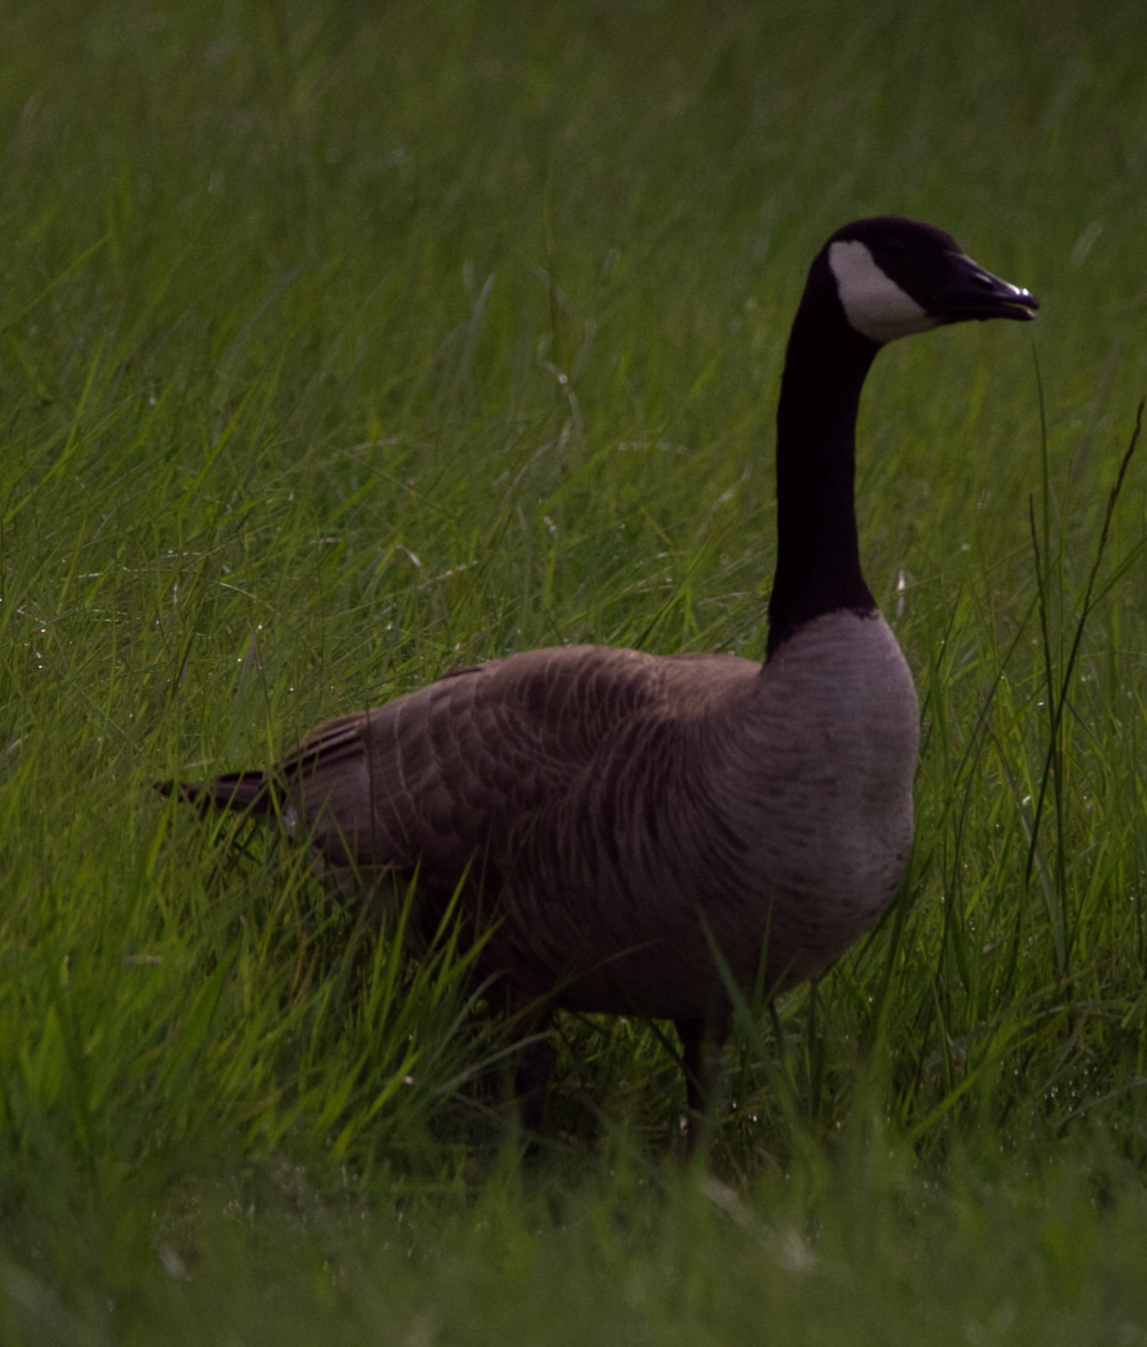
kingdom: Animalia
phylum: Chordata
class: Aves
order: Anseriformes
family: Anatidae
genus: Branta
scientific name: Branta canadensis
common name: Canada goose
